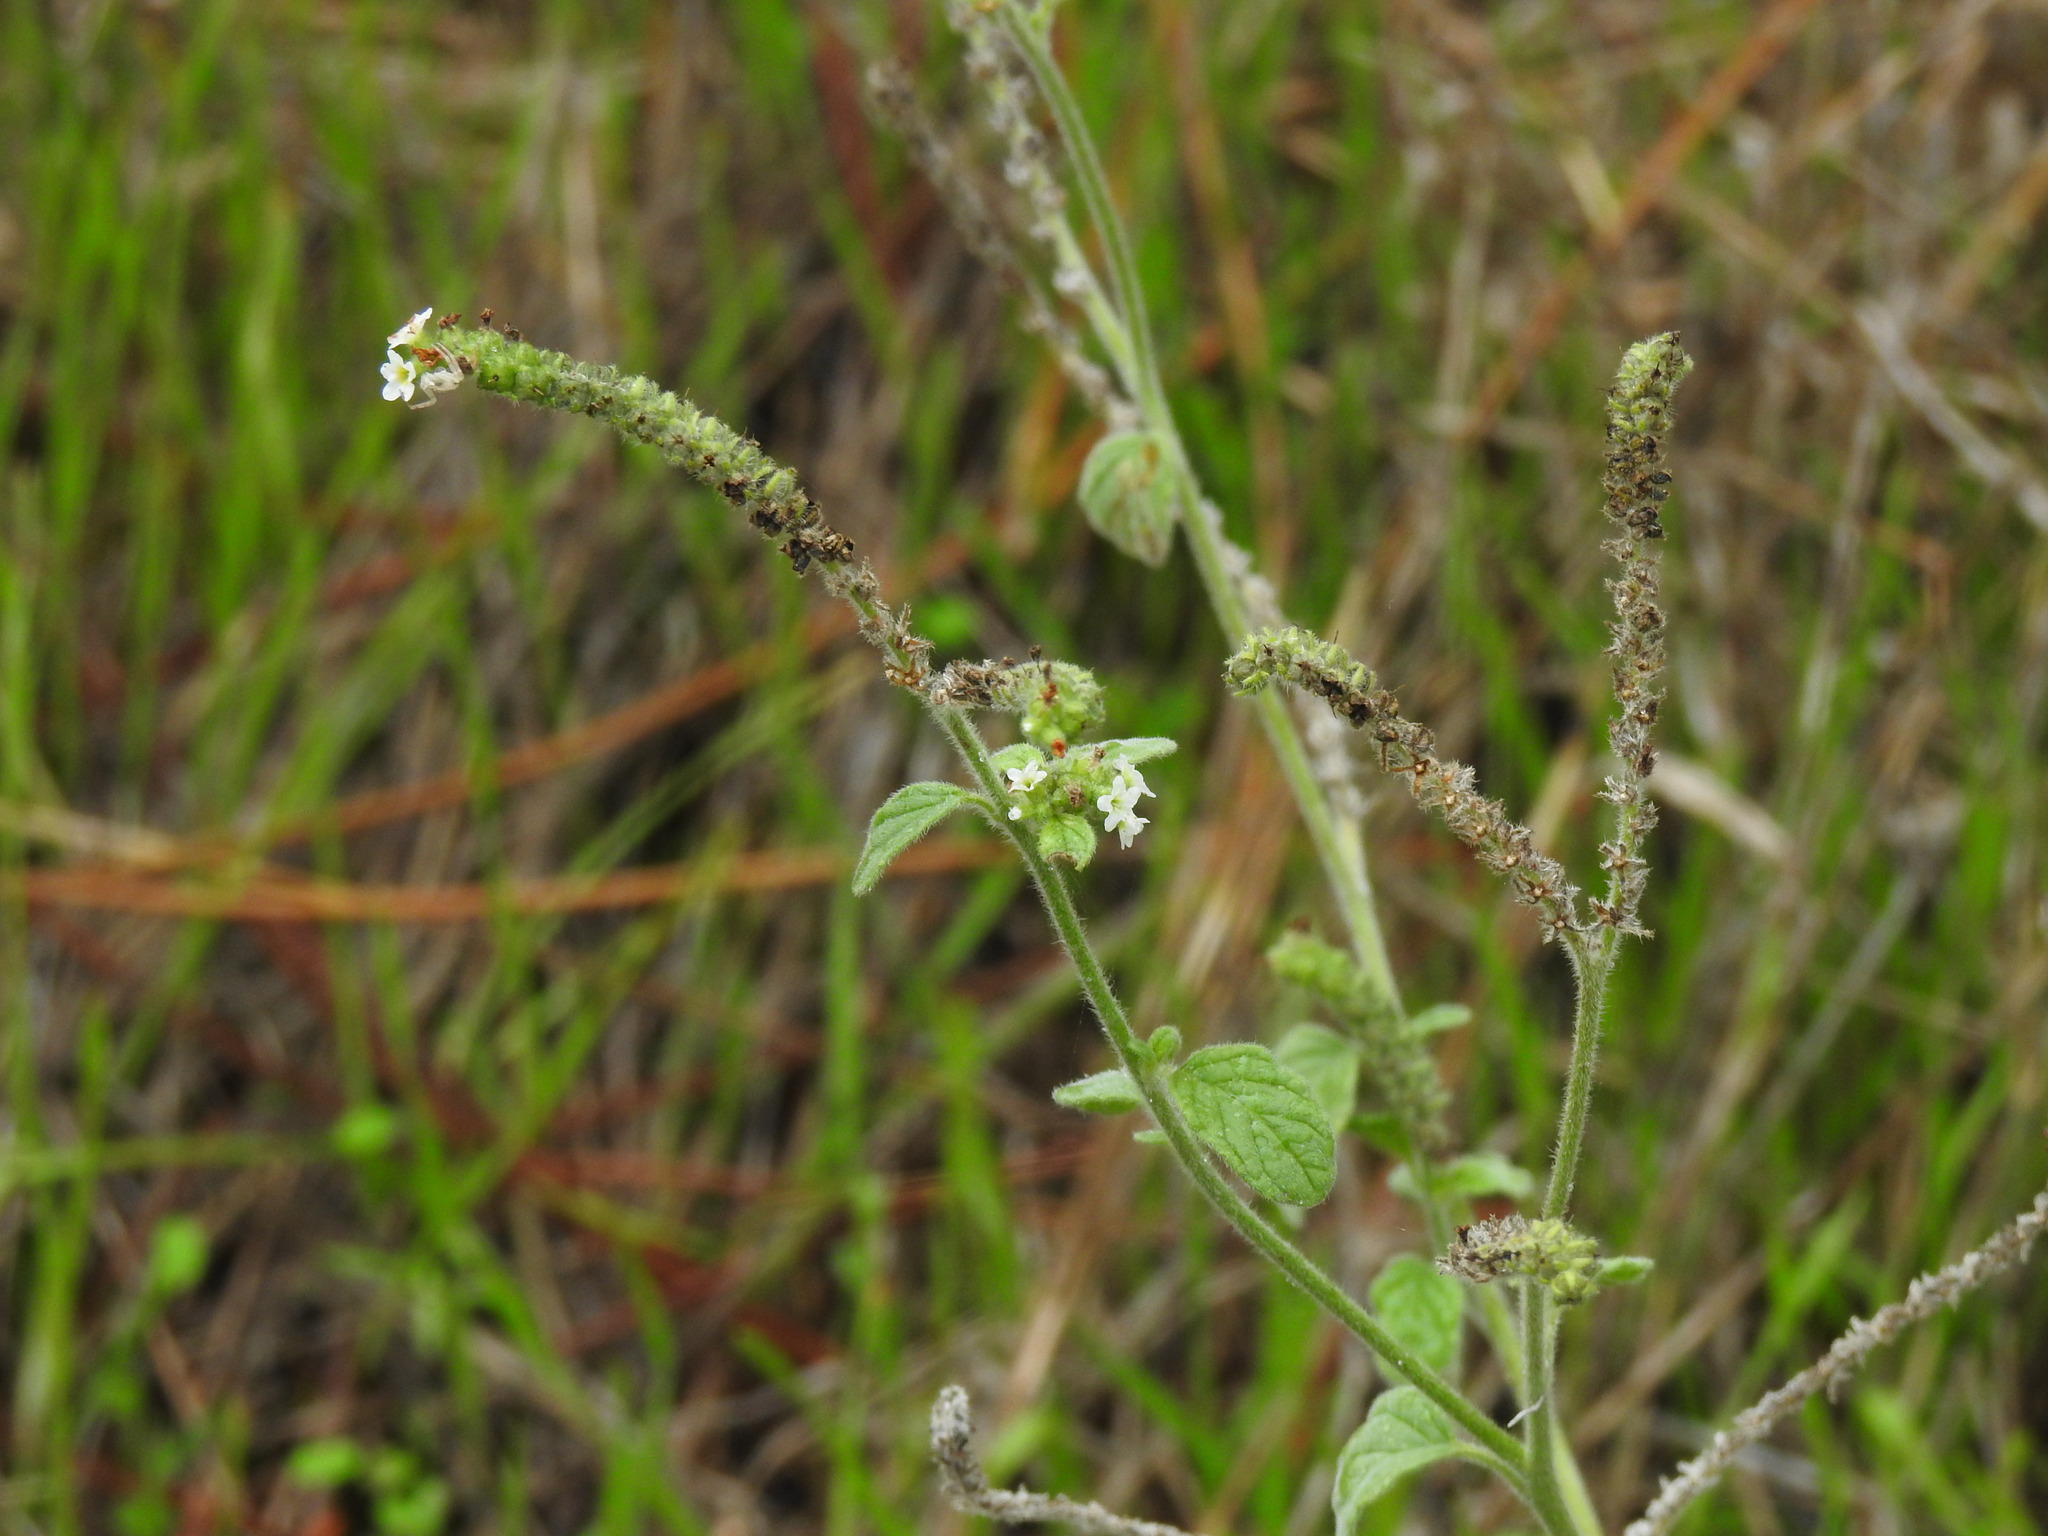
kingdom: Plantae
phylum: Tracheophyta
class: Magnoliopsida
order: Boraginales
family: Heliotropiaceae
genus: Heliotropium
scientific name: Heliotropium europaeum
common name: European heliotrope
